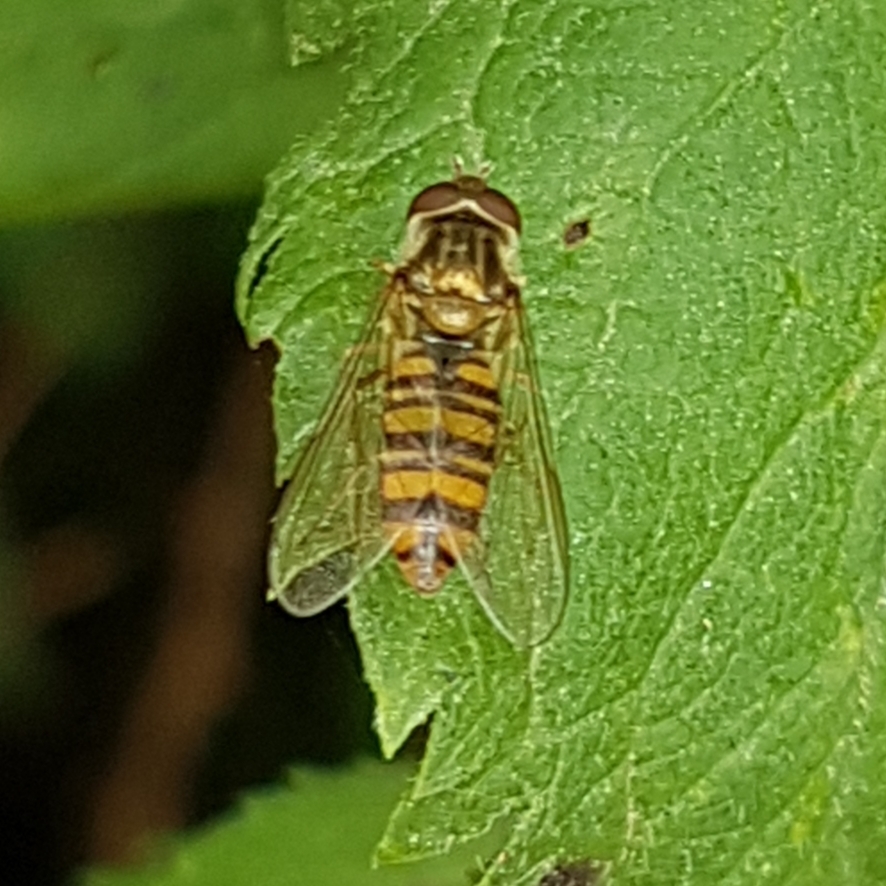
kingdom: Animalia
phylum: Arthropoda
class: Insecta
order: Diptera
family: Syrphidae
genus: Episyrphus
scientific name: Episyrphus balteatus
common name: Marmalade hoverfly
